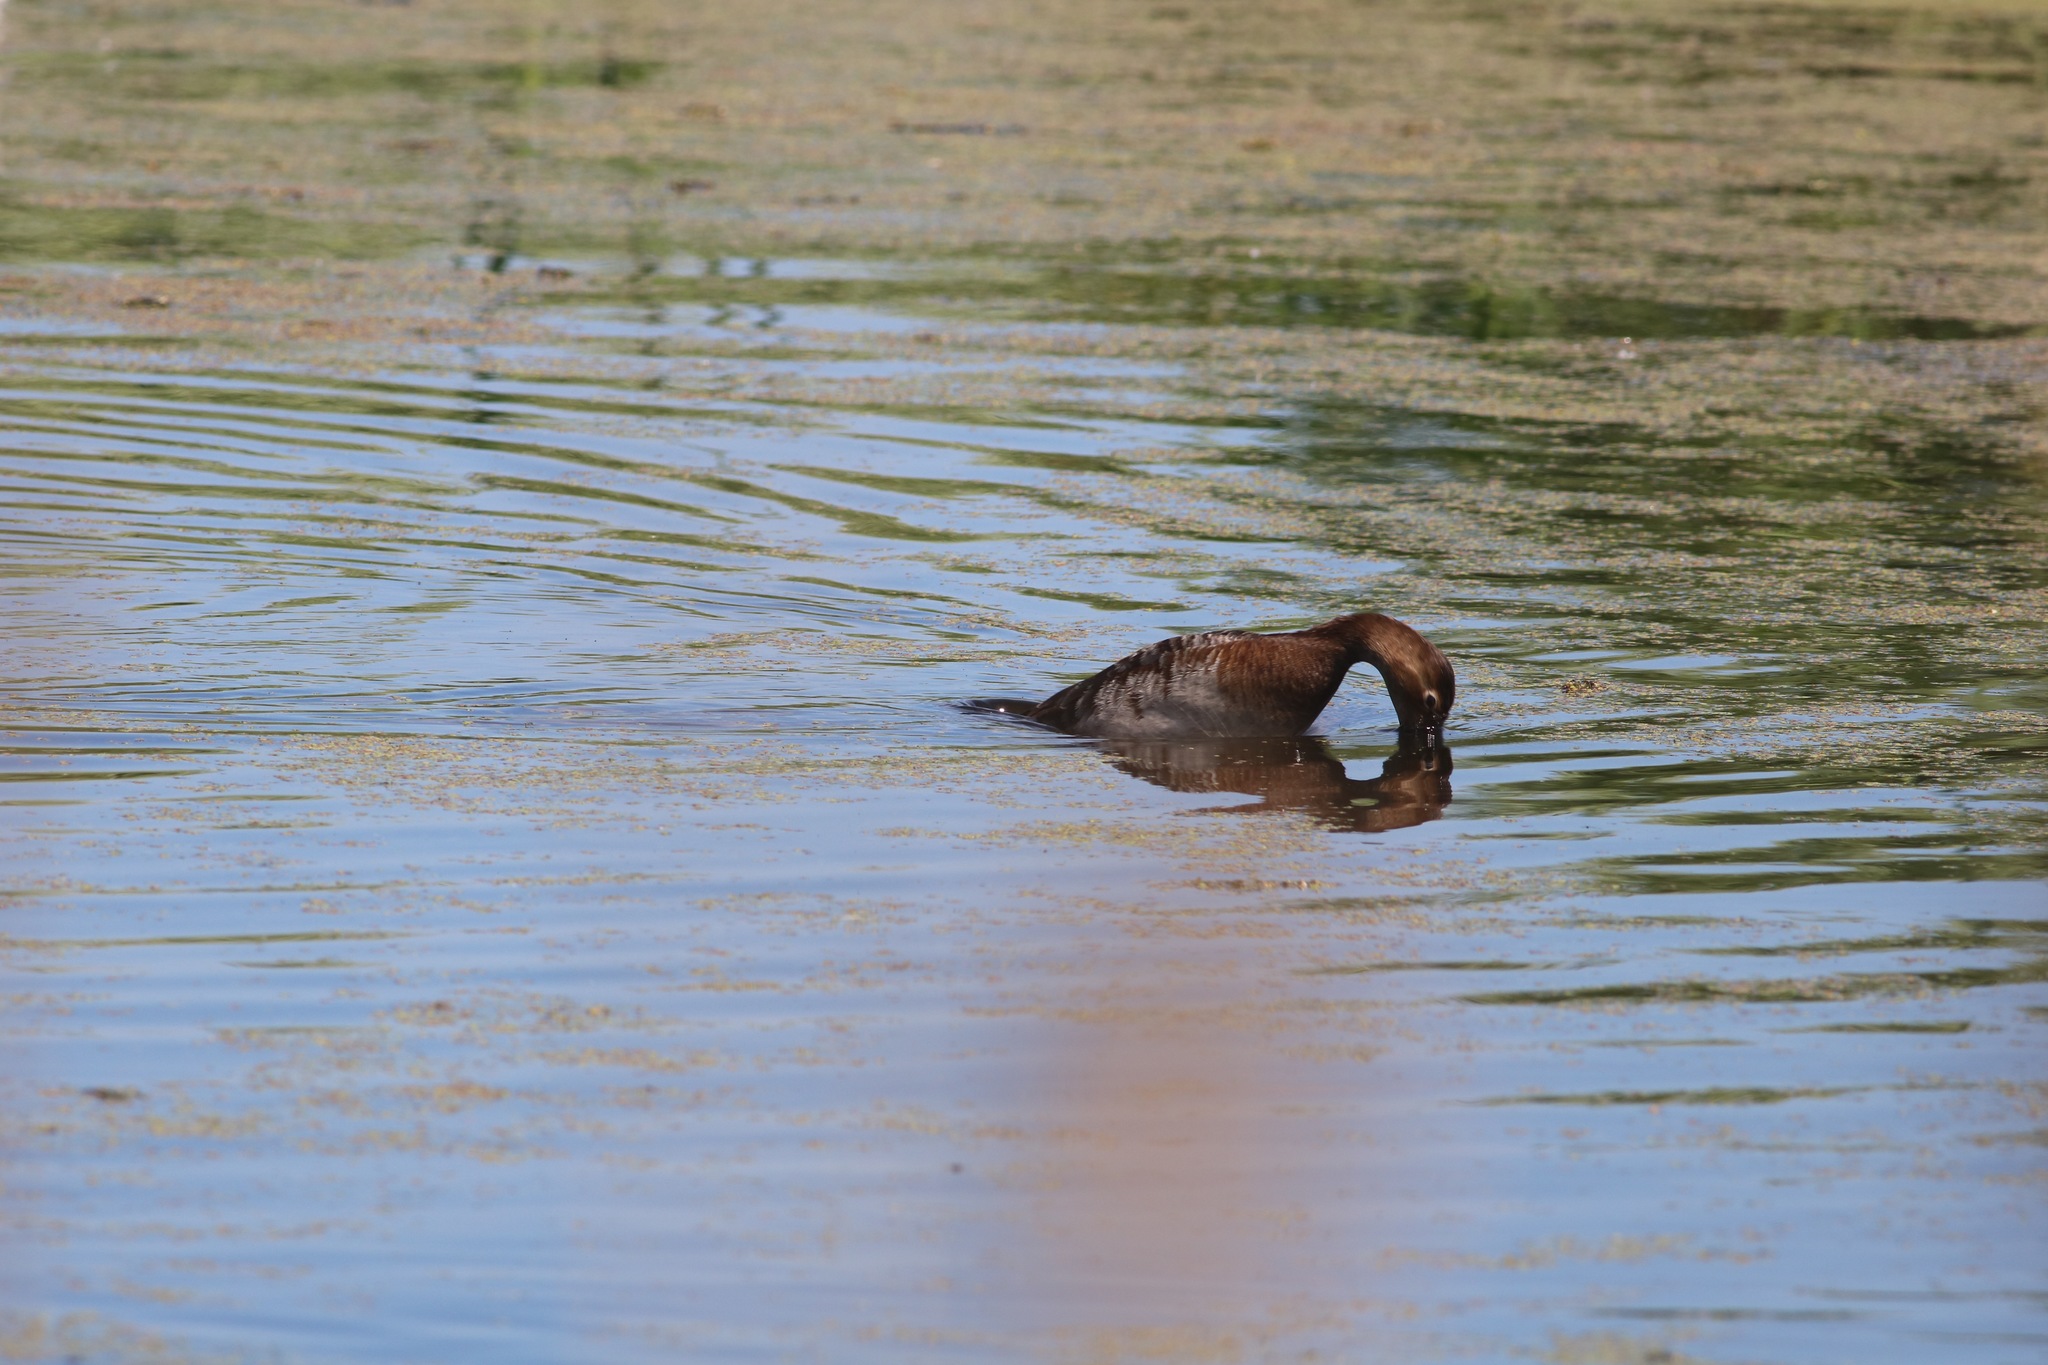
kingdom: Animalia
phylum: Chordata
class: Aves
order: Anseriformes
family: Anatidae
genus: Aythya
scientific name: Aythya ferina
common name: Common pochard
